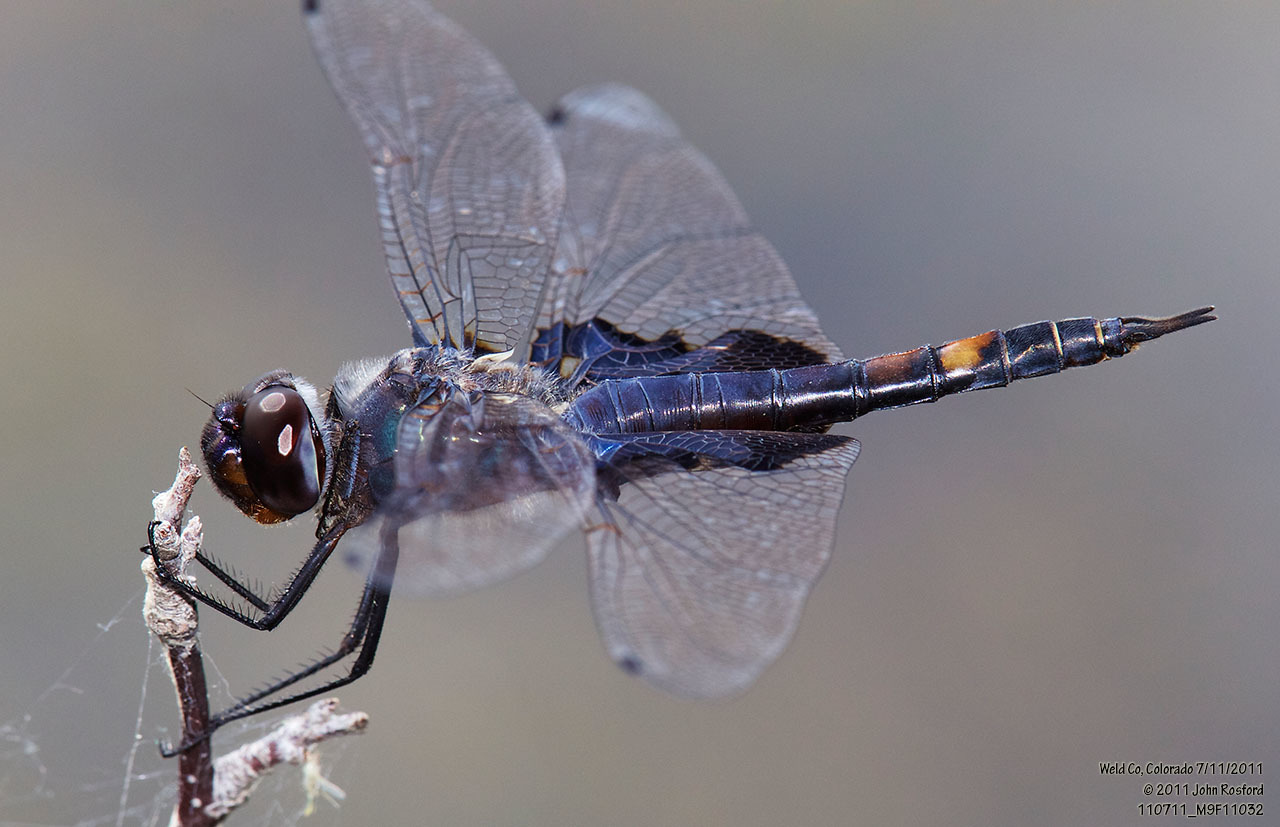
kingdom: Animalia
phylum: Arthropoda
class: Insecta
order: Odonata
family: Libellulidae
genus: Tramea
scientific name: Tramea lacerata
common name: Black saddlebags
